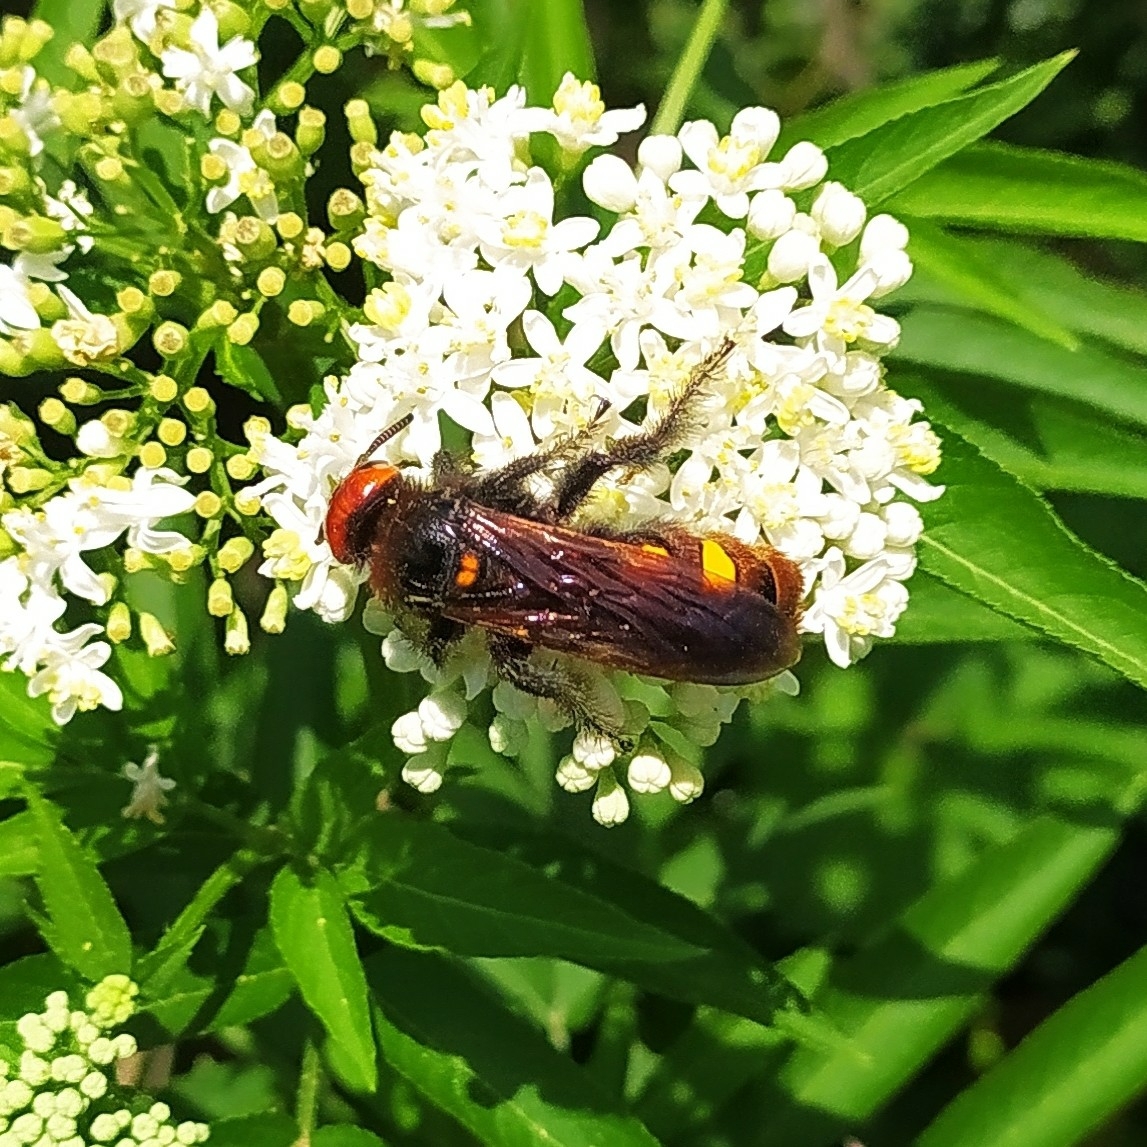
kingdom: Animalia
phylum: Arthropoda
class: Insecta
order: Hymenoptera
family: Scoliidae
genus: Megascolia
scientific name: Megascolia maculata
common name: Mammoth wasp
